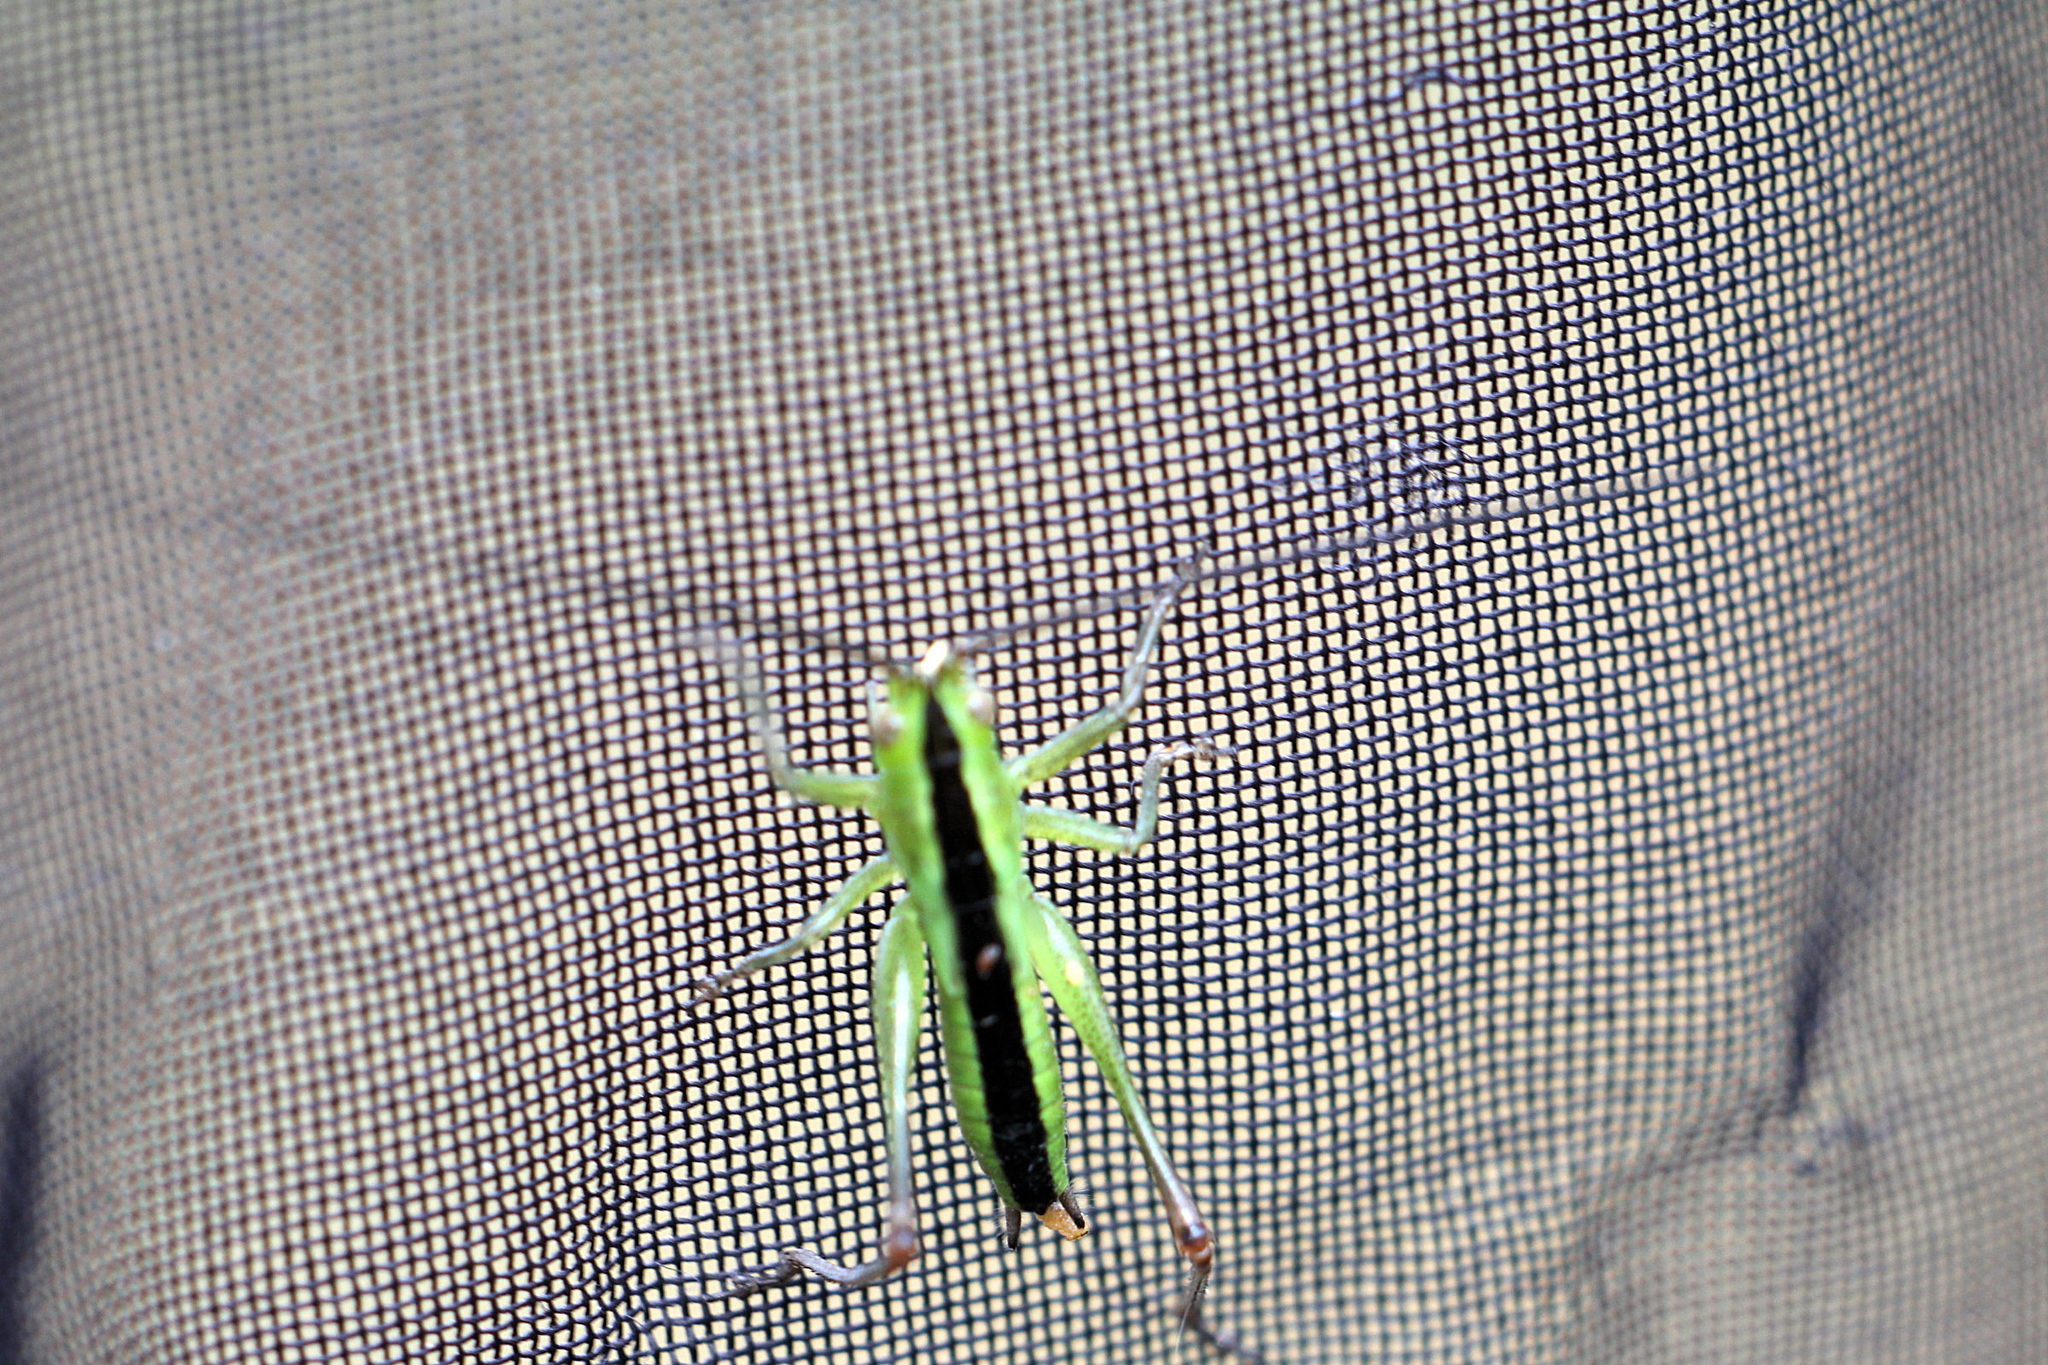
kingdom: Animalia
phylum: Arthropoda
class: Insecta
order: Orthoptera
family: Tettigoniidae
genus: Conocephalus
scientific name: Conocephalus
